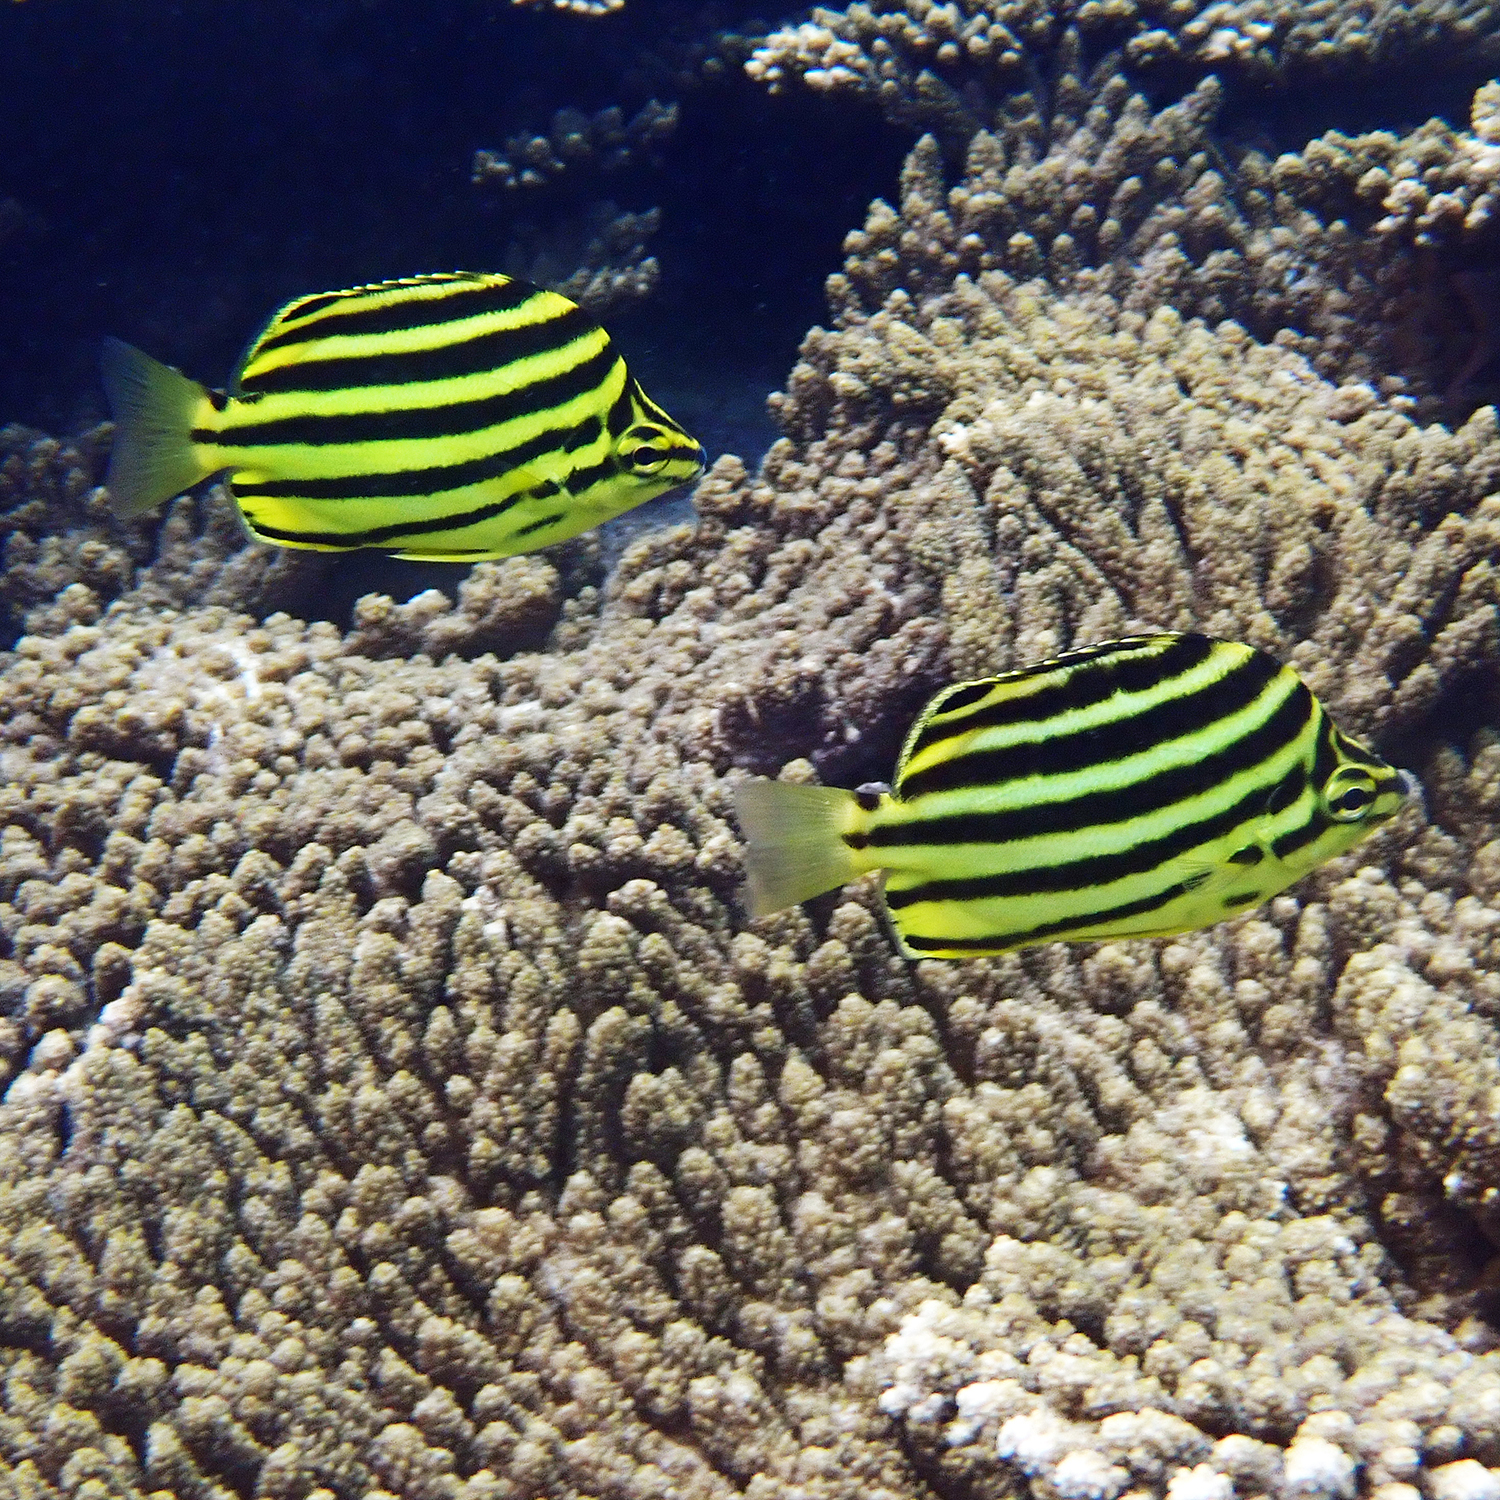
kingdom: Animalia
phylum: Chordata
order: Perciformes
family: Kyphosidae
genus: Microcanthus
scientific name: Microcanthus joyceae
